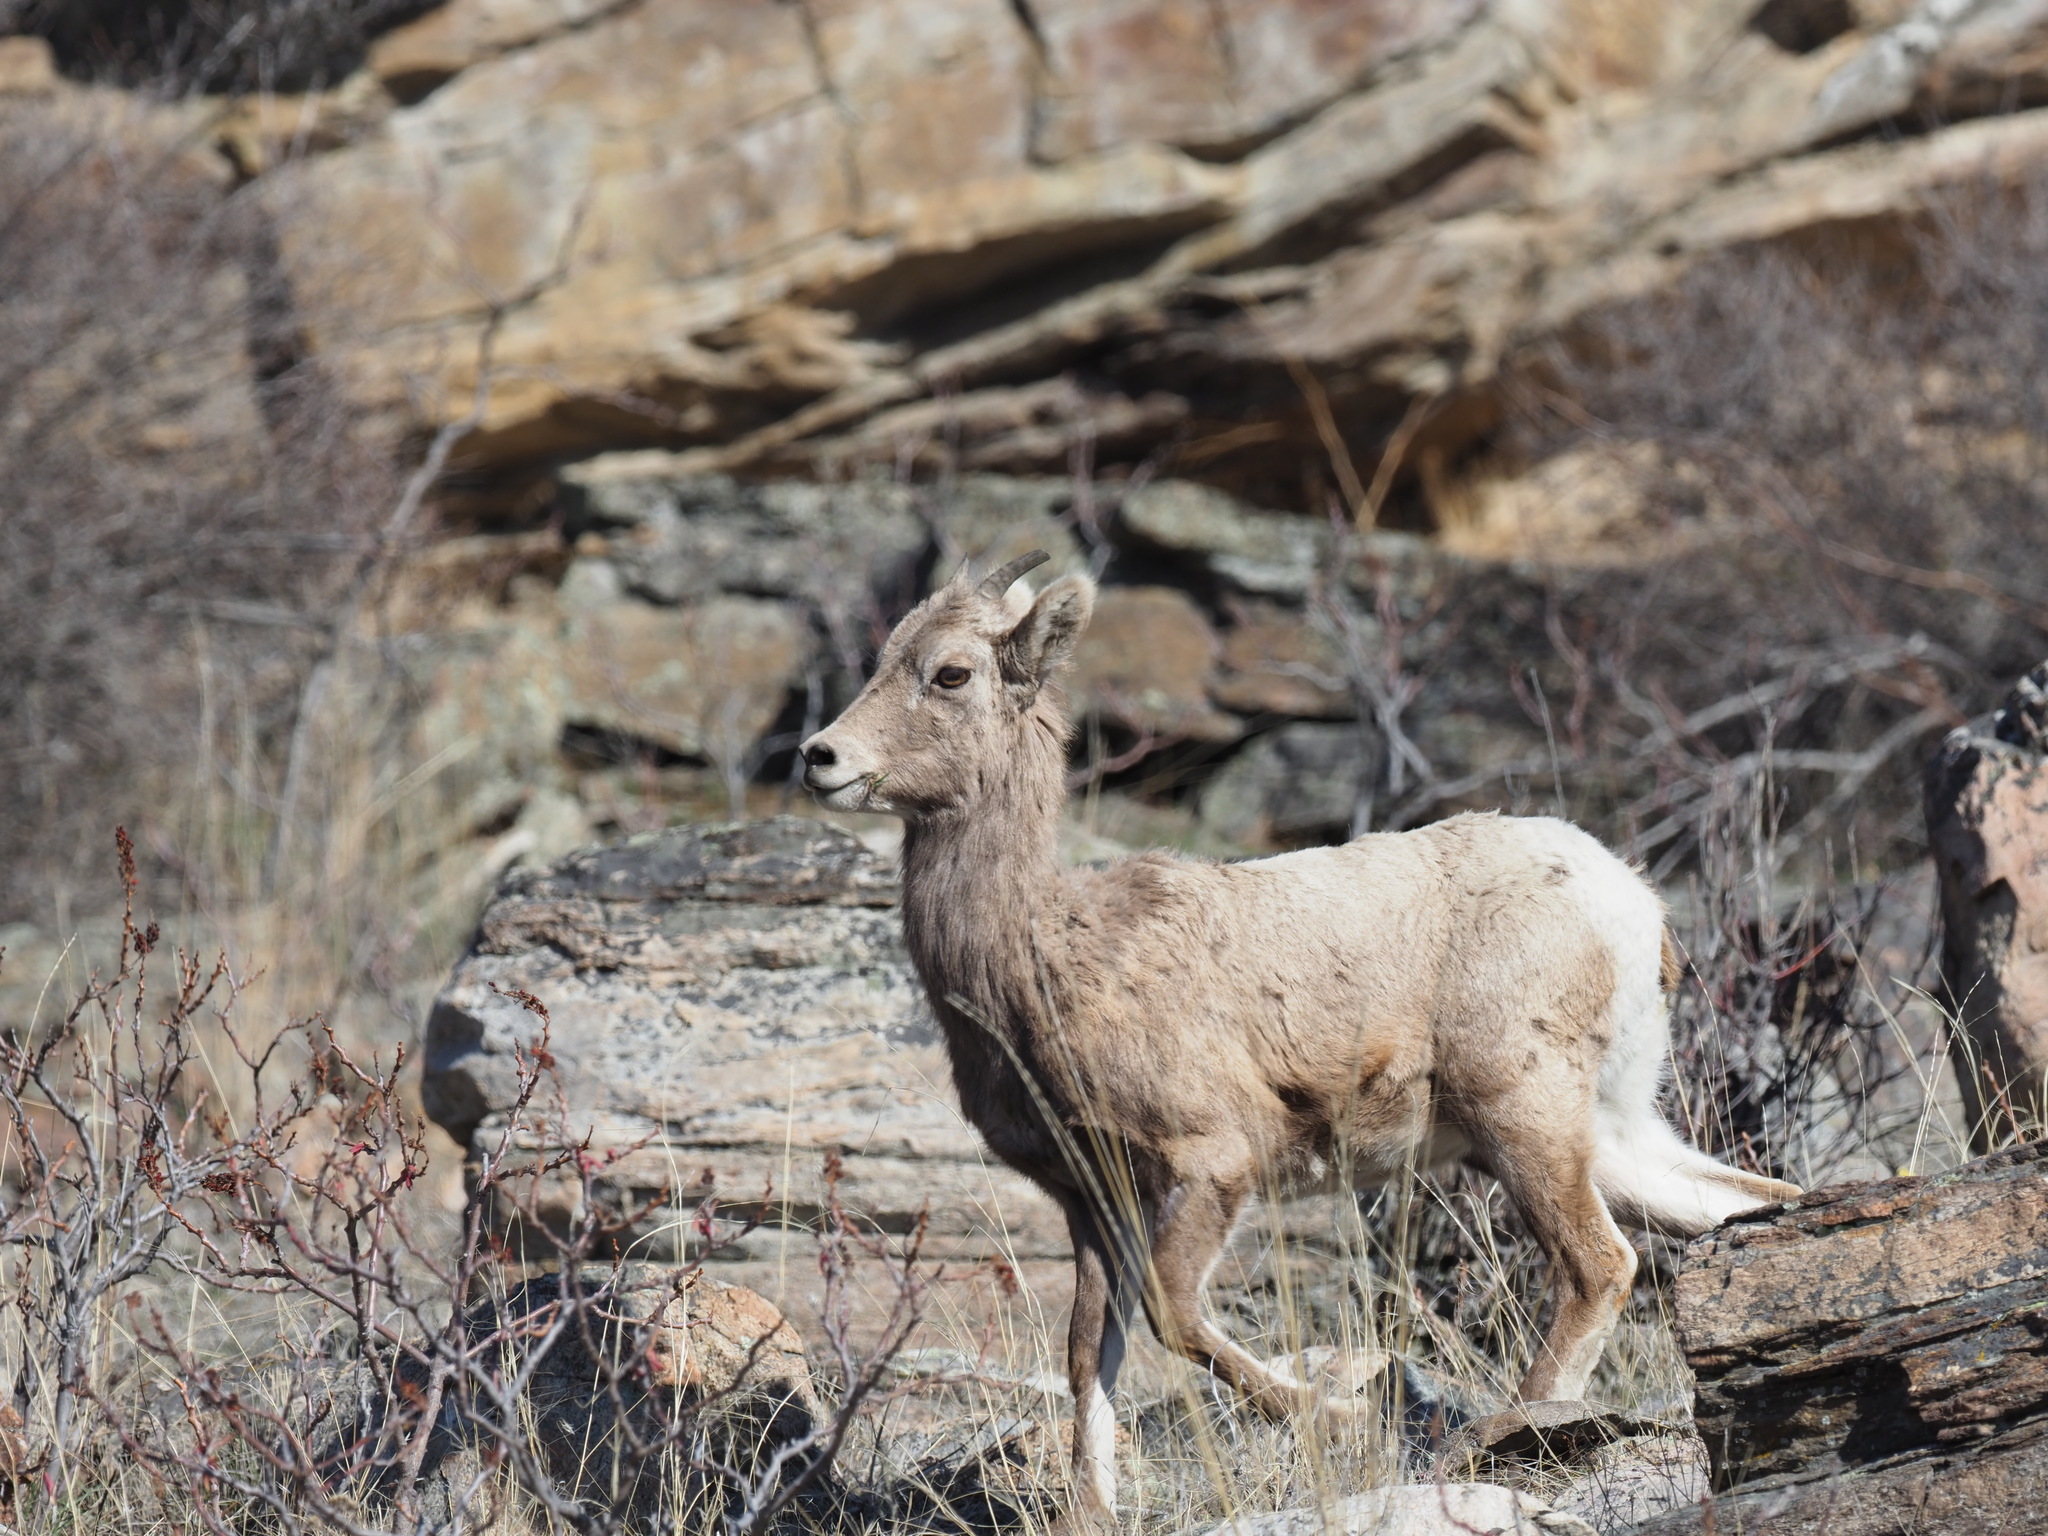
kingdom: Animalia
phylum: Chordata
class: Mammalia
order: Artiodactyla
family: Bovidae
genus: Ovis
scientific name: Ovis canadensis
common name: Bighorn sheep
